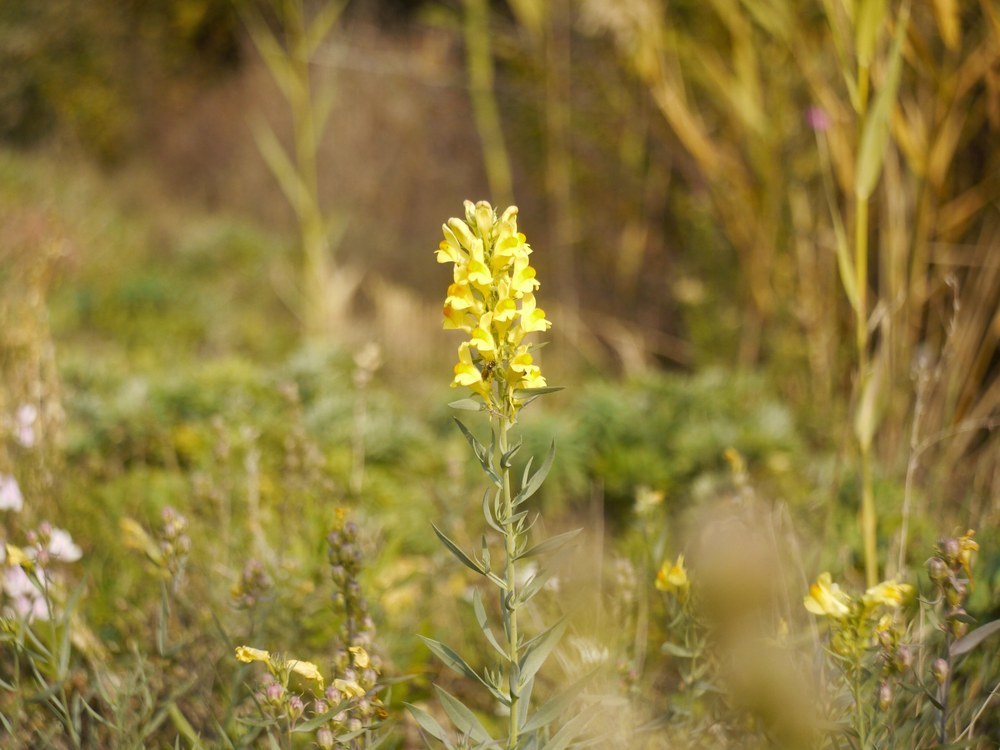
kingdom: Plantae
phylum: Tracheophyta
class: Magnoliopsida
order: Lamiales
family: Plantaginaceae
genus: Linaria
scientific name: Linaria vulgaris
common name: Butter and eggs
